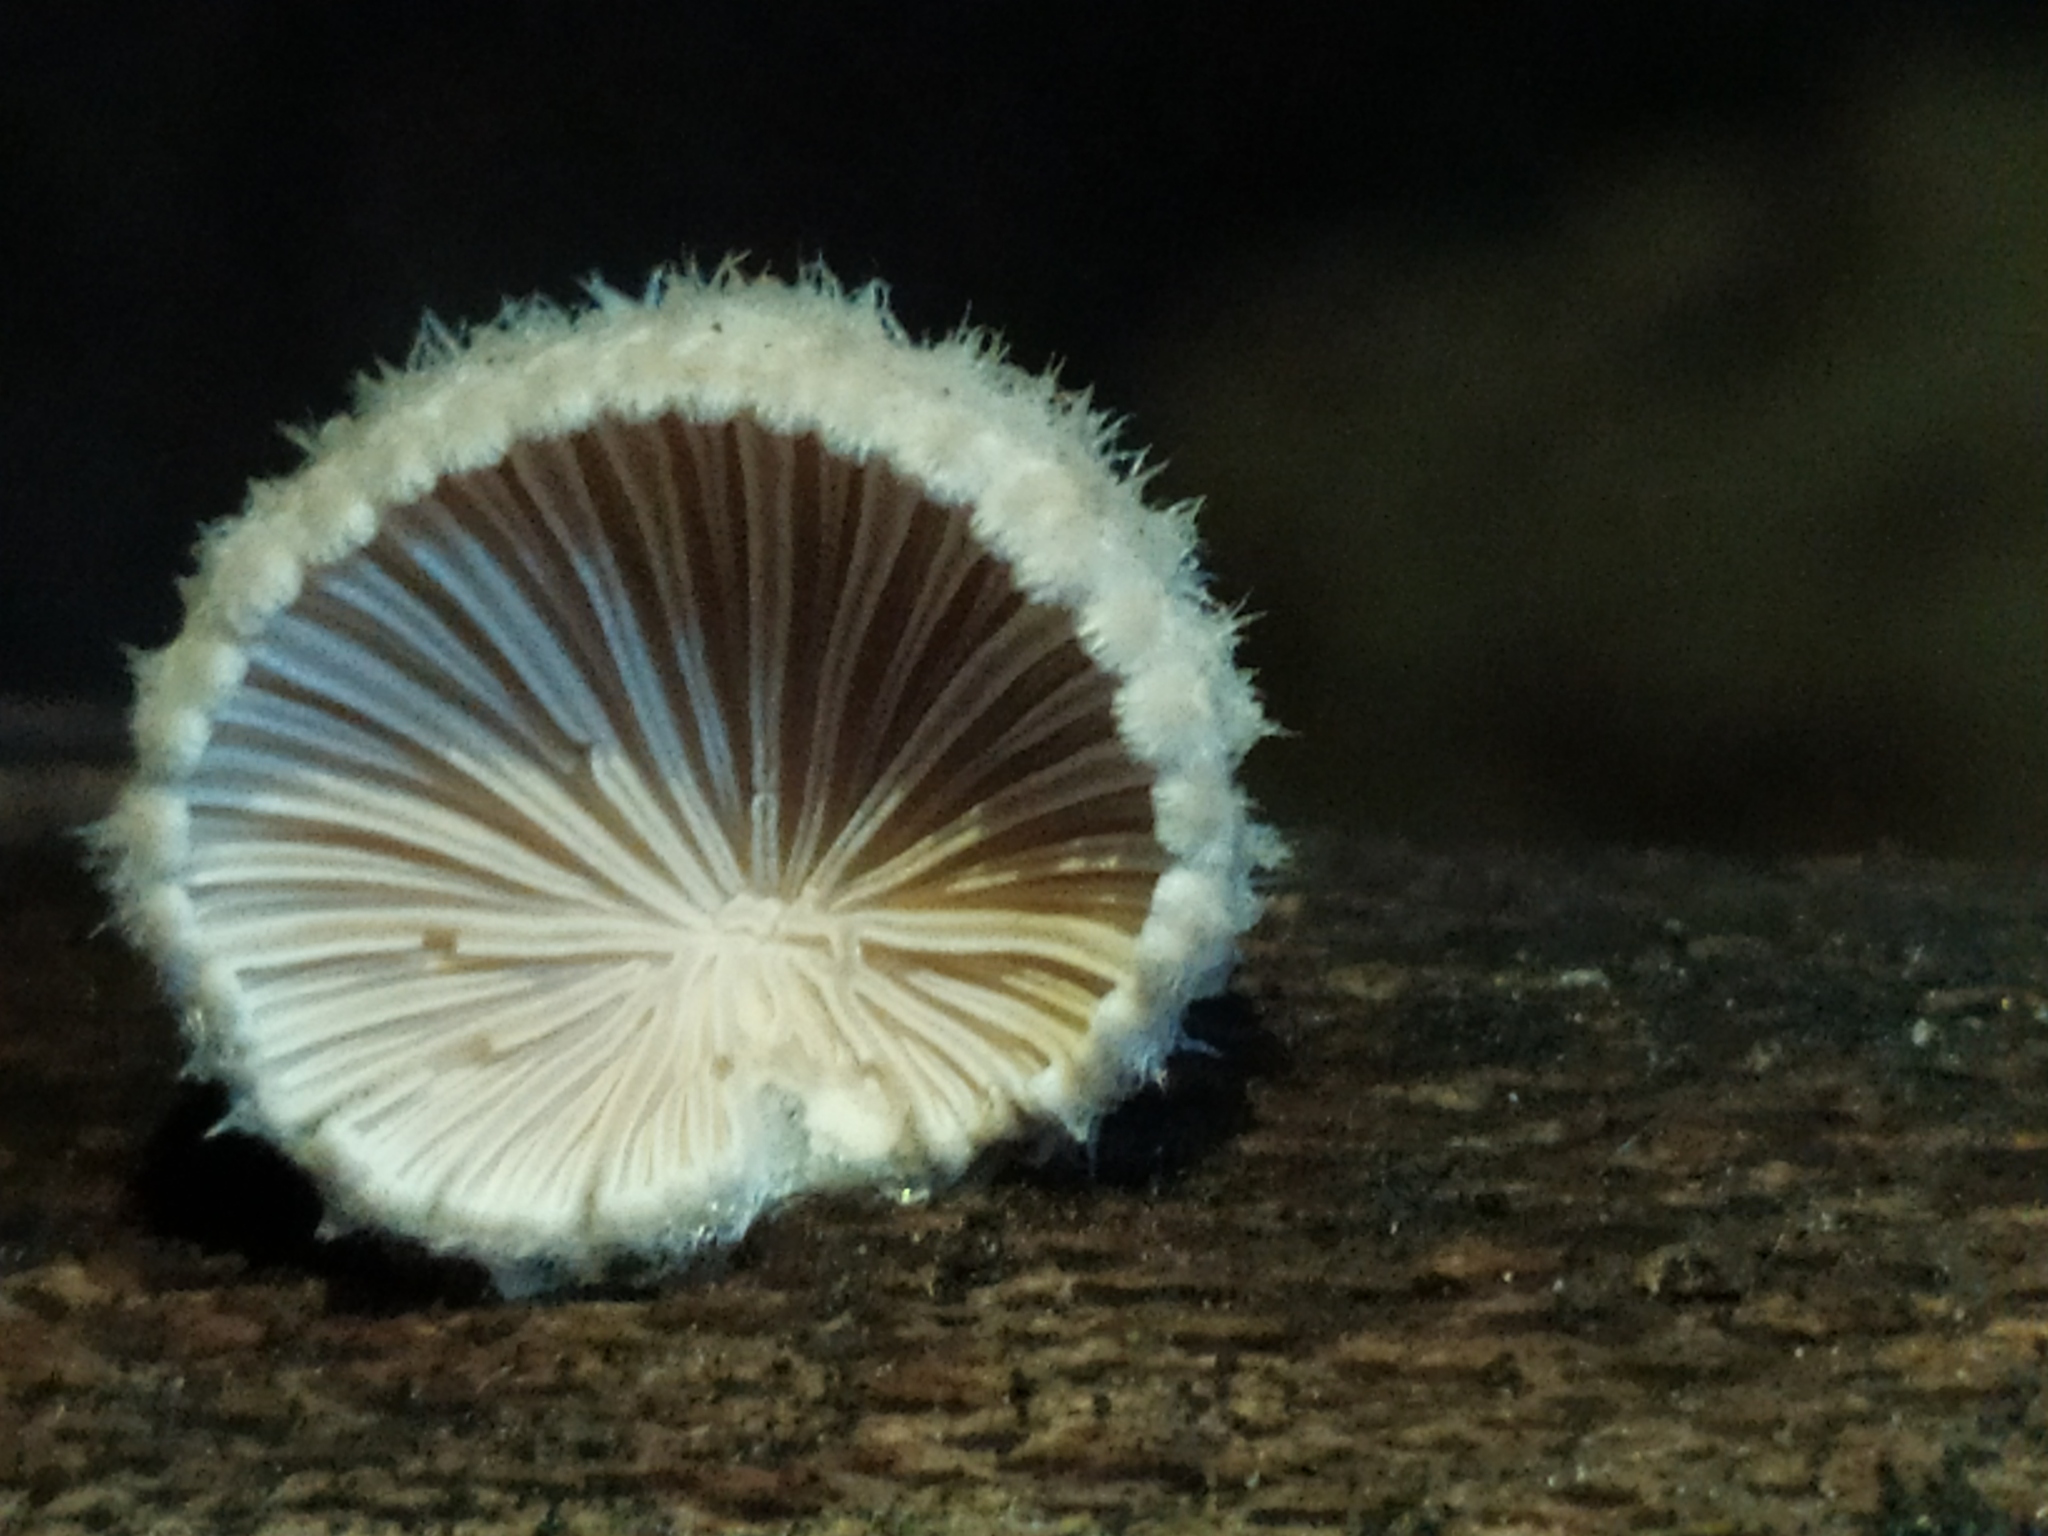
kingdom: Fungi
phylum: Basidiomycota
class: Agaricomycetes
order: Agaricales
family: Schizophyllaceae
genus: Schizophyllum
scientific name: Schizophyllum commune
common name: Common porecrust
